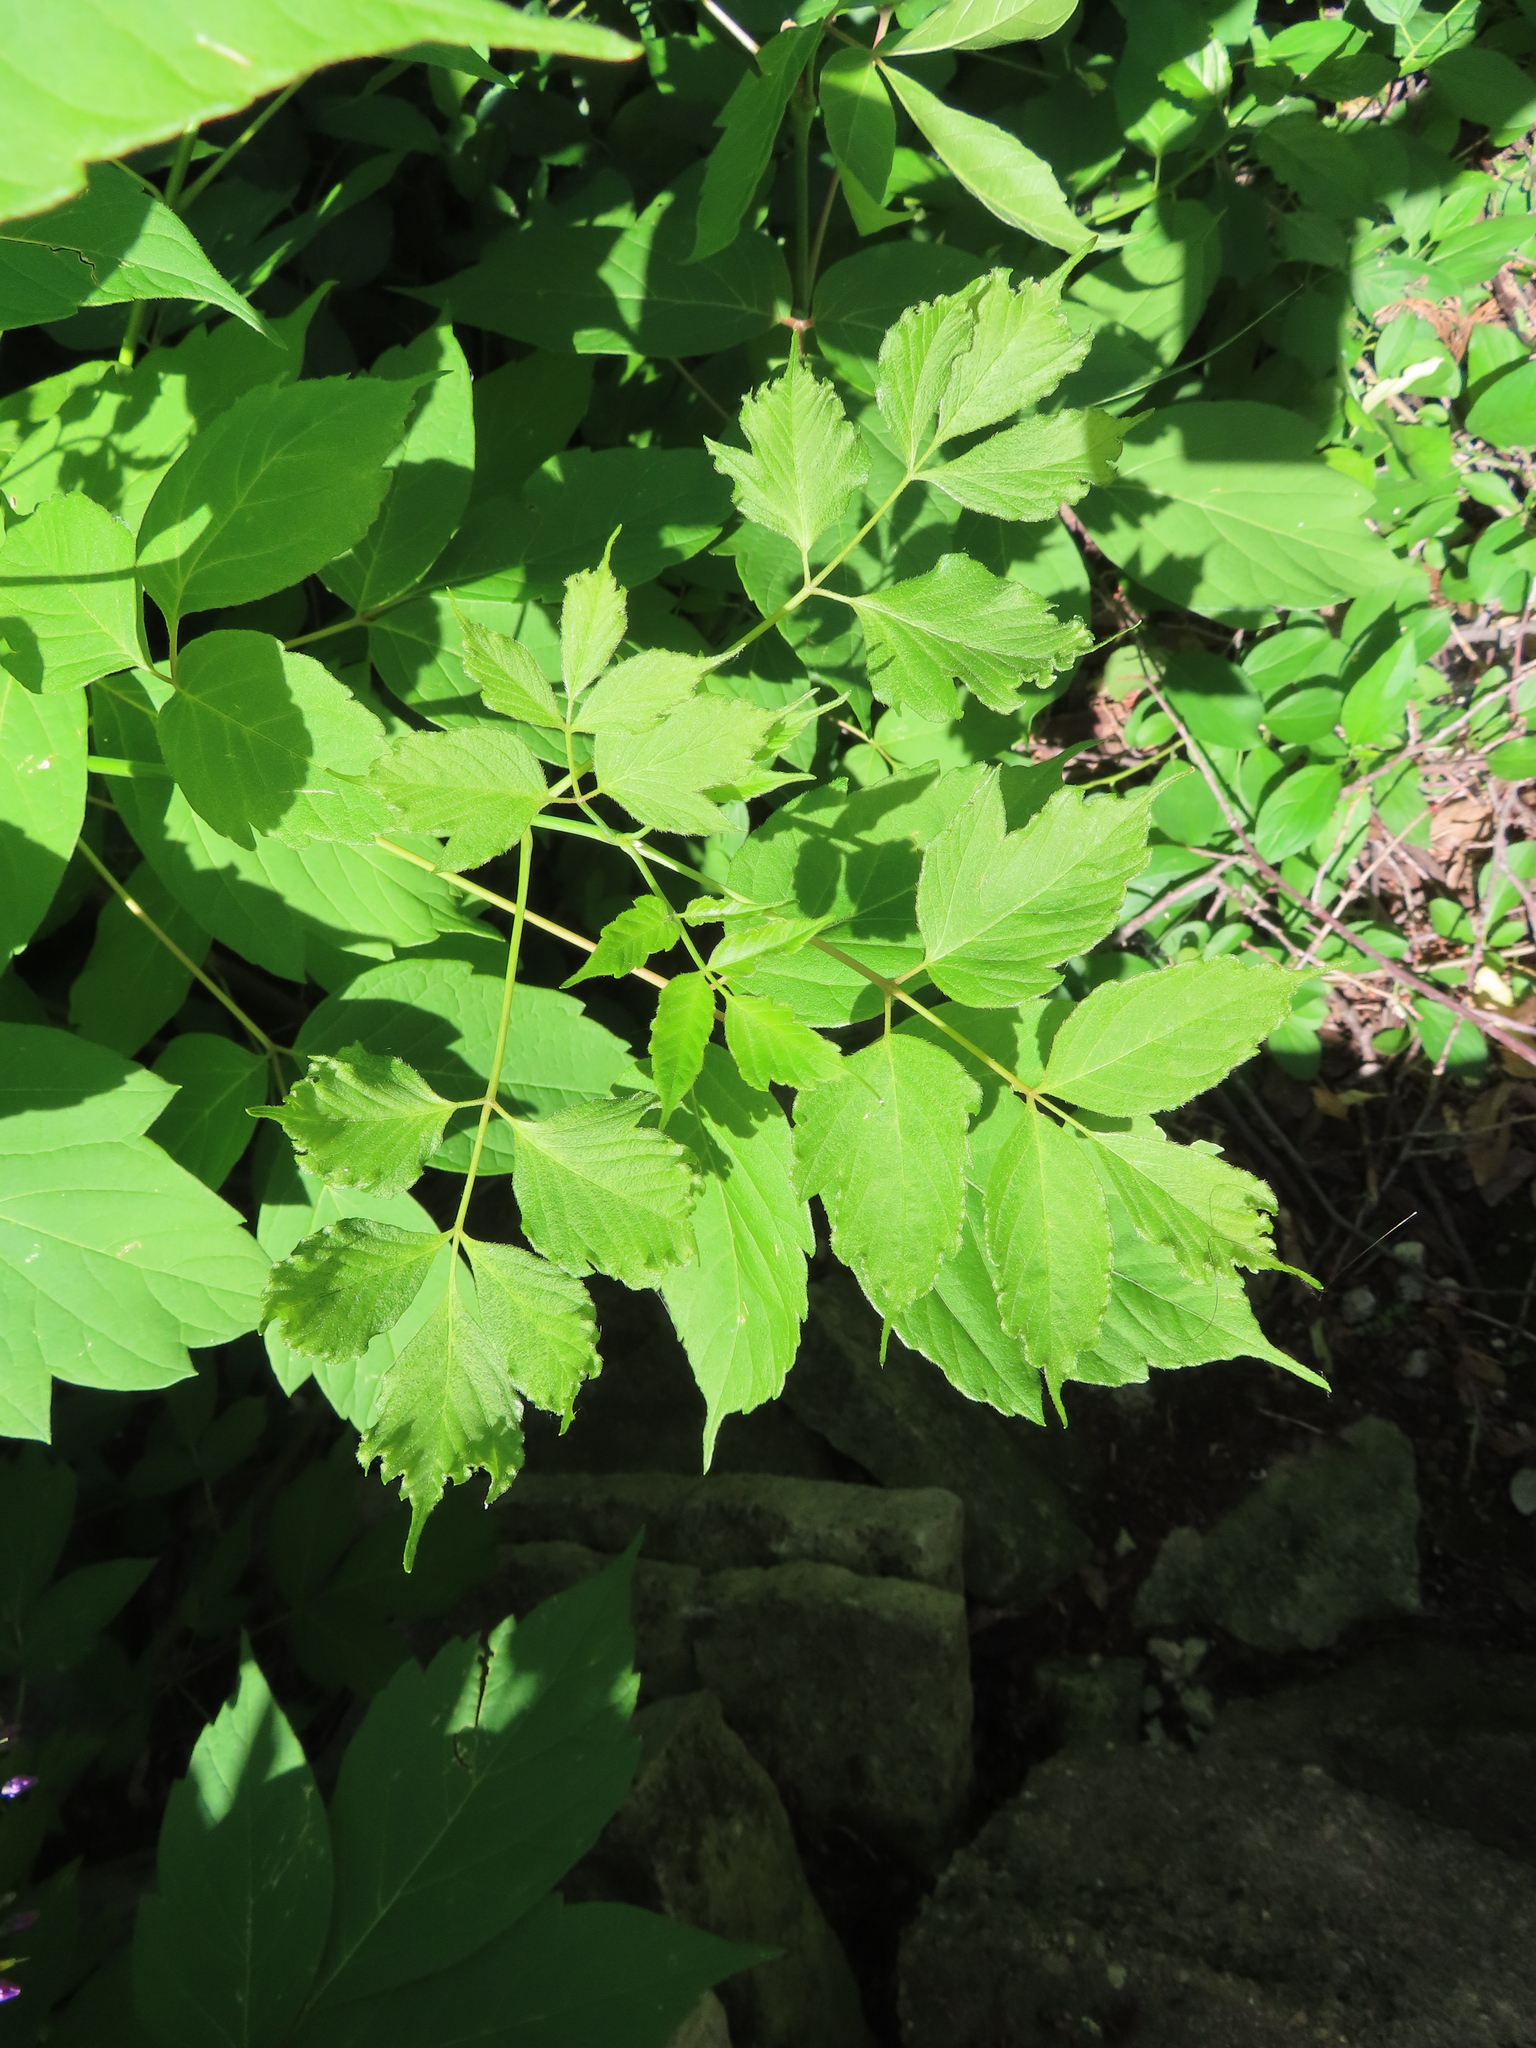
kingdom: Plantae
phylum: Tracheophyta
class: Magnoliopsida
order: Sapindales
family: Sapindaceae
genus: Acer
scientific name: Acer negundo
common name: Ashleaf maple
